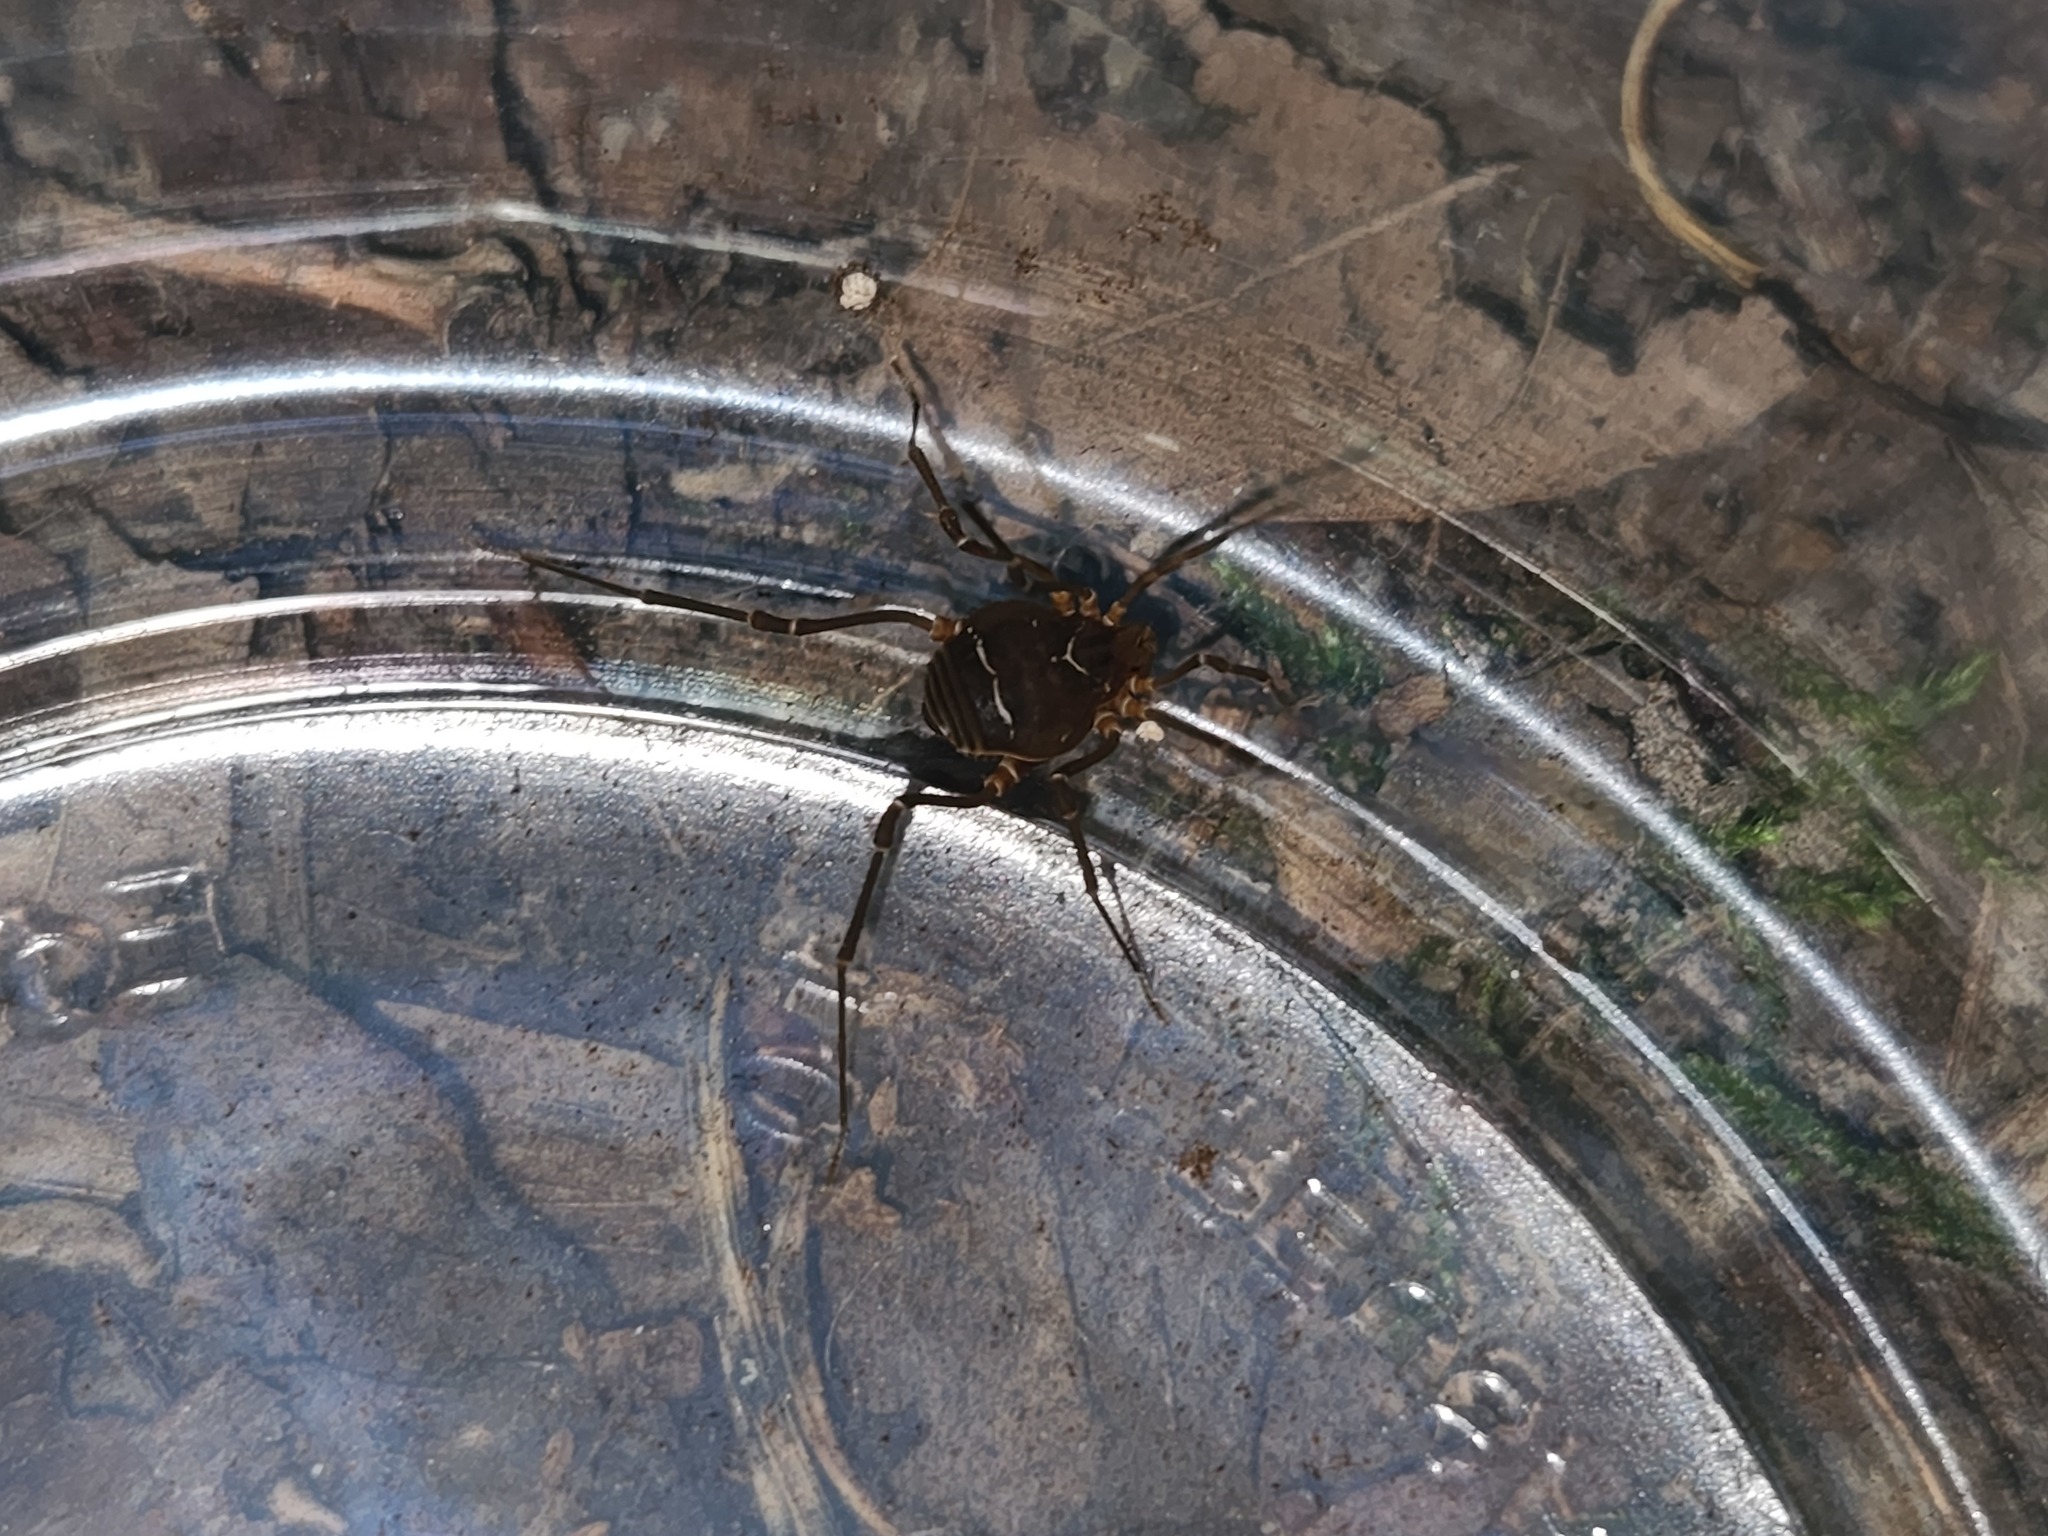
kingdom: Animalia
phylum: Arthropoda
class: Arachnida
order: Opiliones
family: Cosmetidae
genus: Libitioides
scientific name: Libitioides sayi
